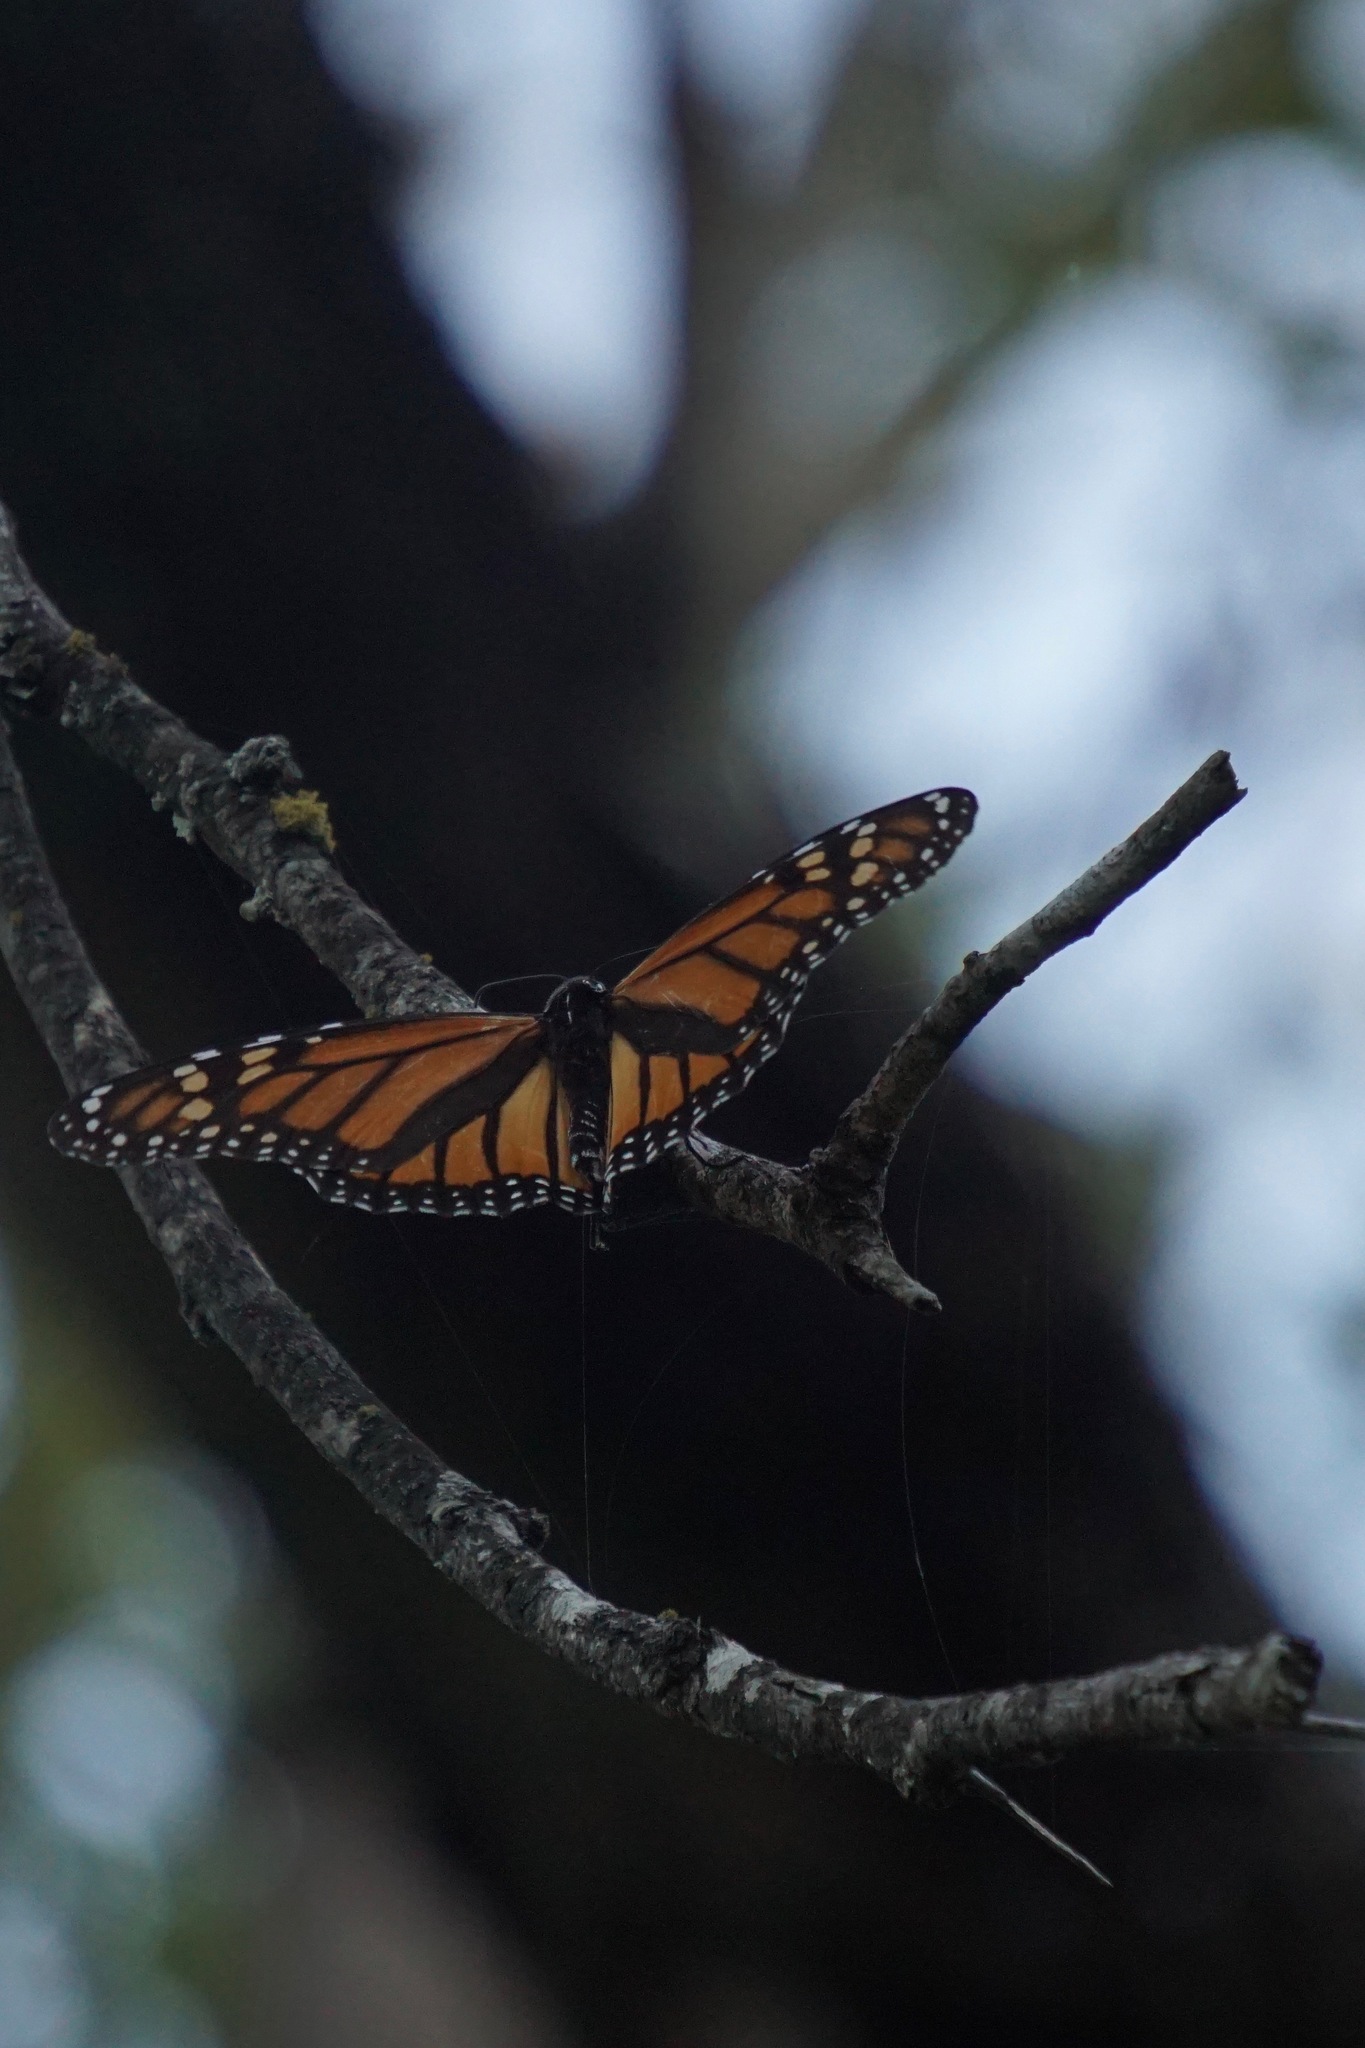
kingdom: Animalia
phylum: Arthropoda
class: Insecta
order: Lepidoptera
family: Nymphalidae
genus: Danaus
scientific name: Danaus plexippus
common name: Monarch
